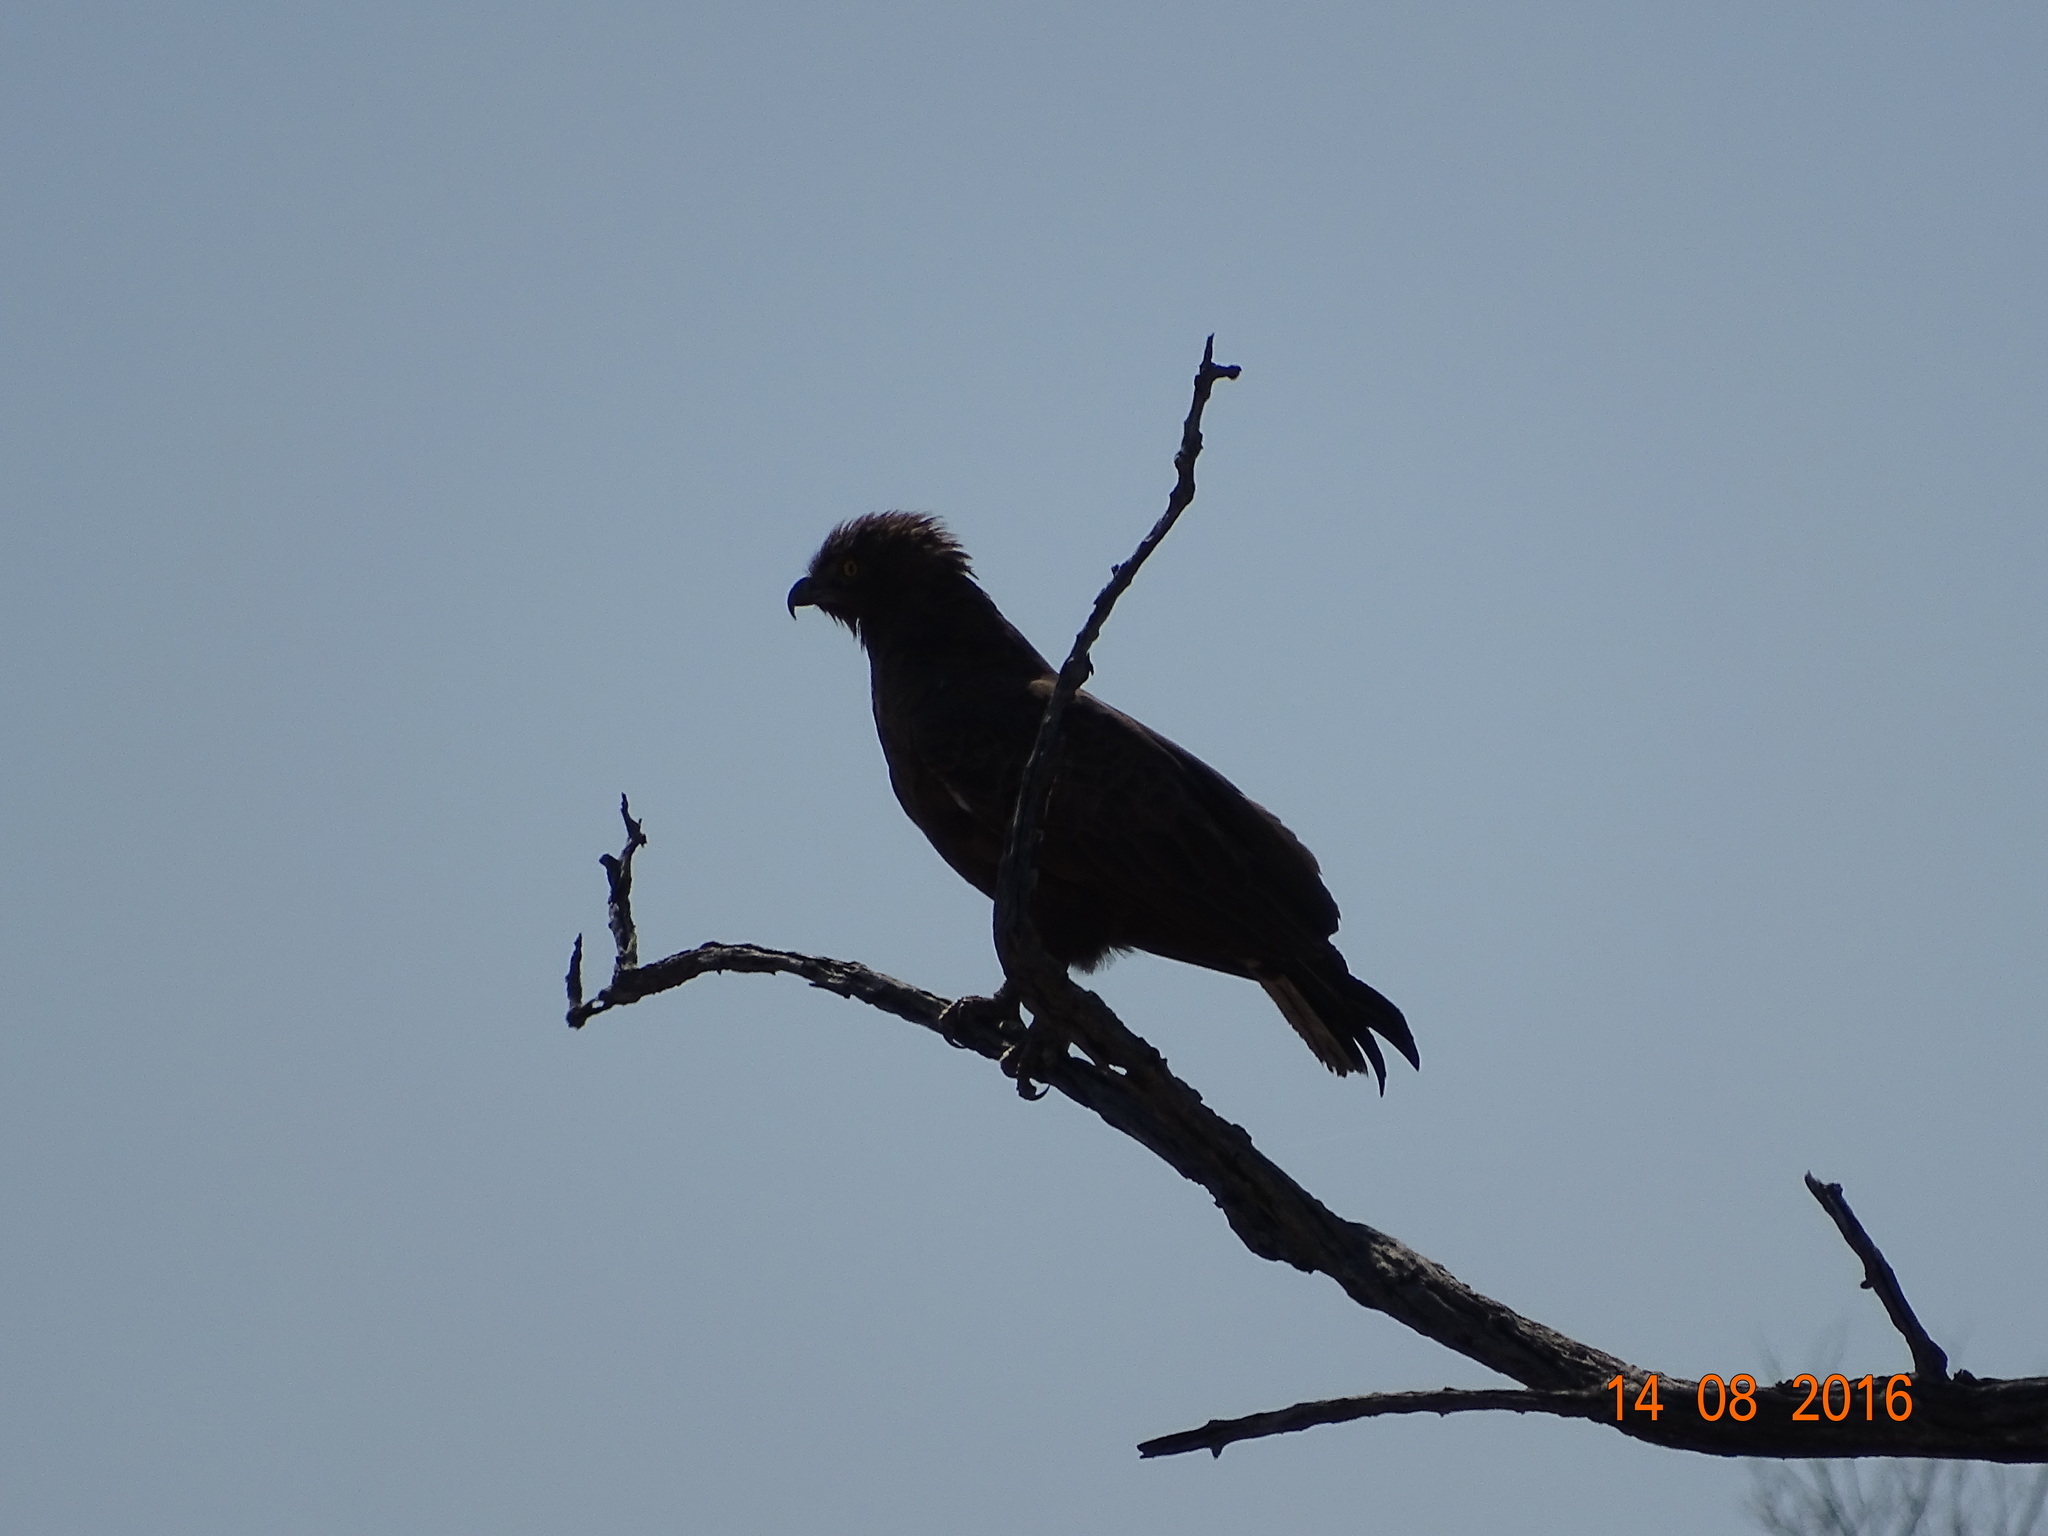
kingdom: Animalia
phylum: Chordata
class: Aves
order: Accipitriformes
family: Accipitridae
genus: Circaetus
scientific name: Circaetus cinereus
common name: Brown snake eagle
